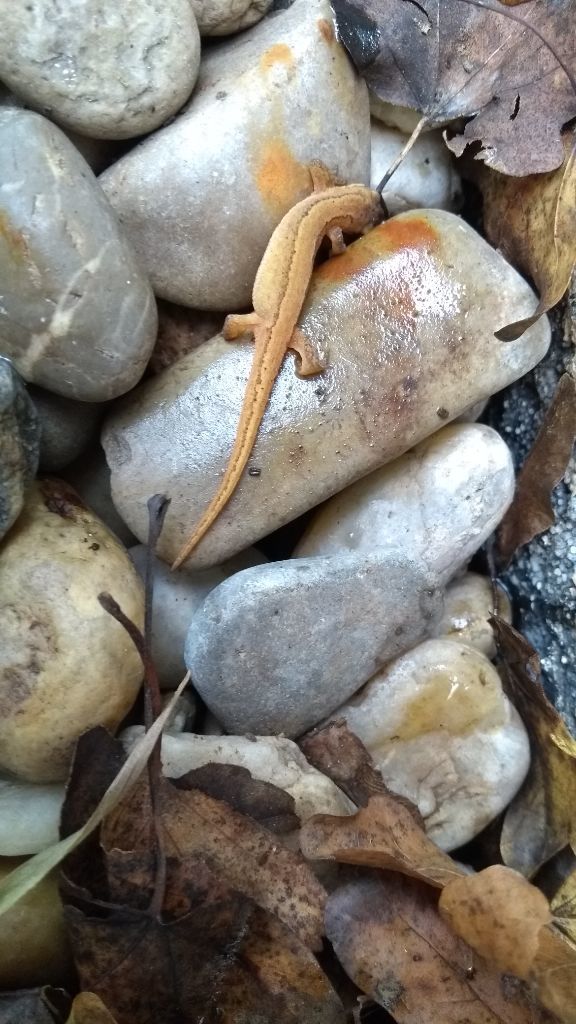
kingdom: Animalia
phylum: Chordata
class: Amphibia
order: Caudata
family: Salamandridae
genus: Lissotriton
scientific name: Lissotriton vulgaris
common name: Smooth newt
